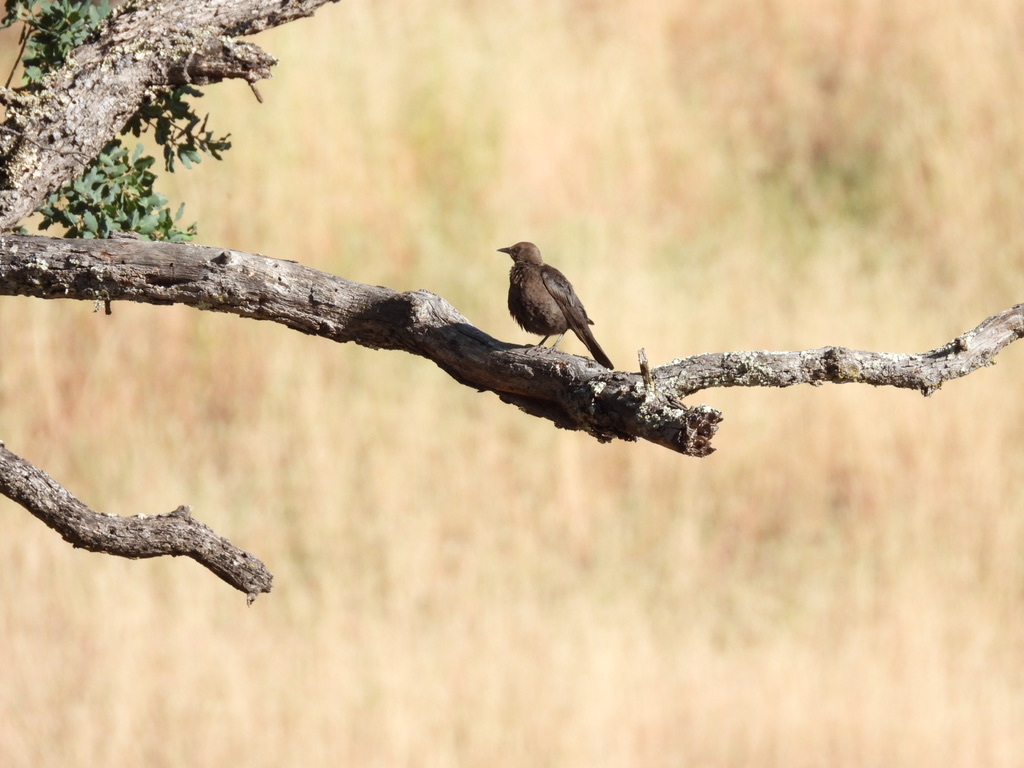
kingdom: Animalia
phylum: Chordata
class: Aves
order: Passeriformes
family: Icteridae
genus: Euphagus
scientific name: Euphagus cyanocephalus
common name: Brewer's blackbird
